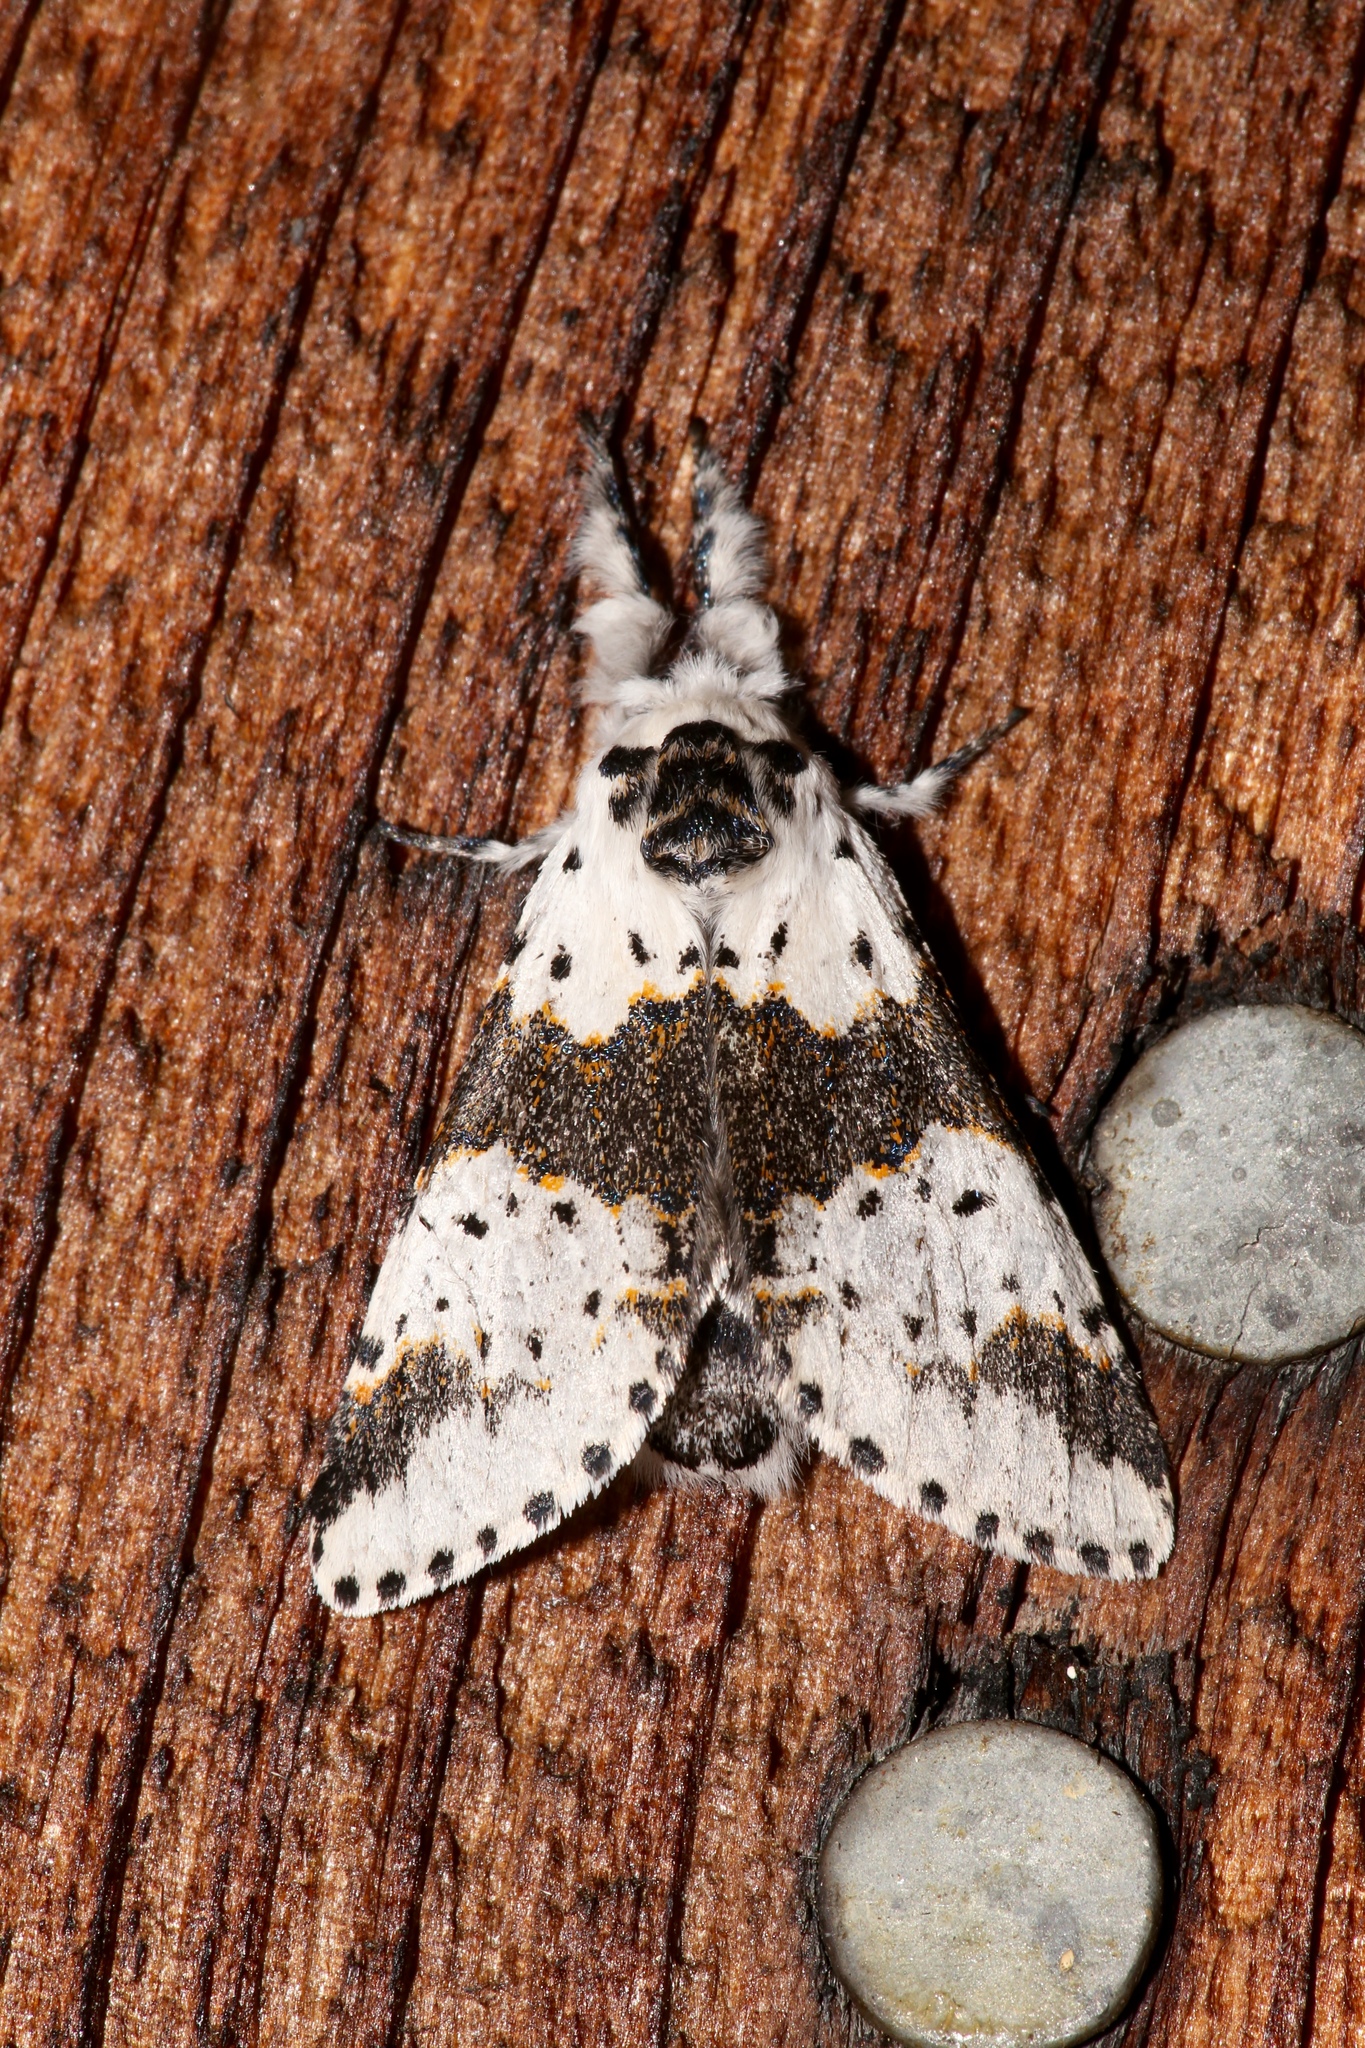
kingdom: Animalia
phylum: Arthropoda
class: Insecta
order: Lepidoptera
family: Notodontidae
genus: Furcula
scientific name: Furcula borealis
